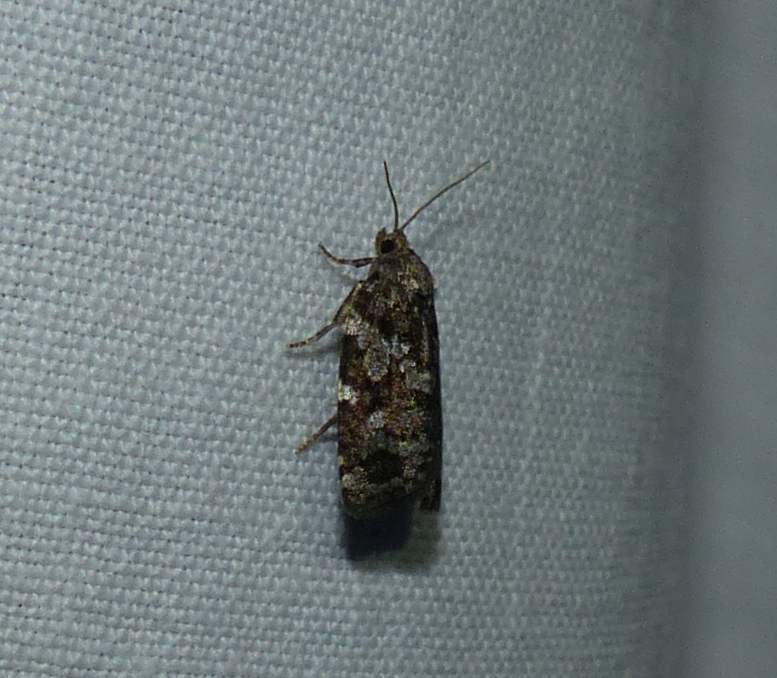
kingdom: Animalia
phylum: Arthropoda
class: Insecta
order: Lepidoptera
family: Tortricidae
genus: Choristoneura
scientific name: Choristoneura fumiferana
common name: Spruce budworm
